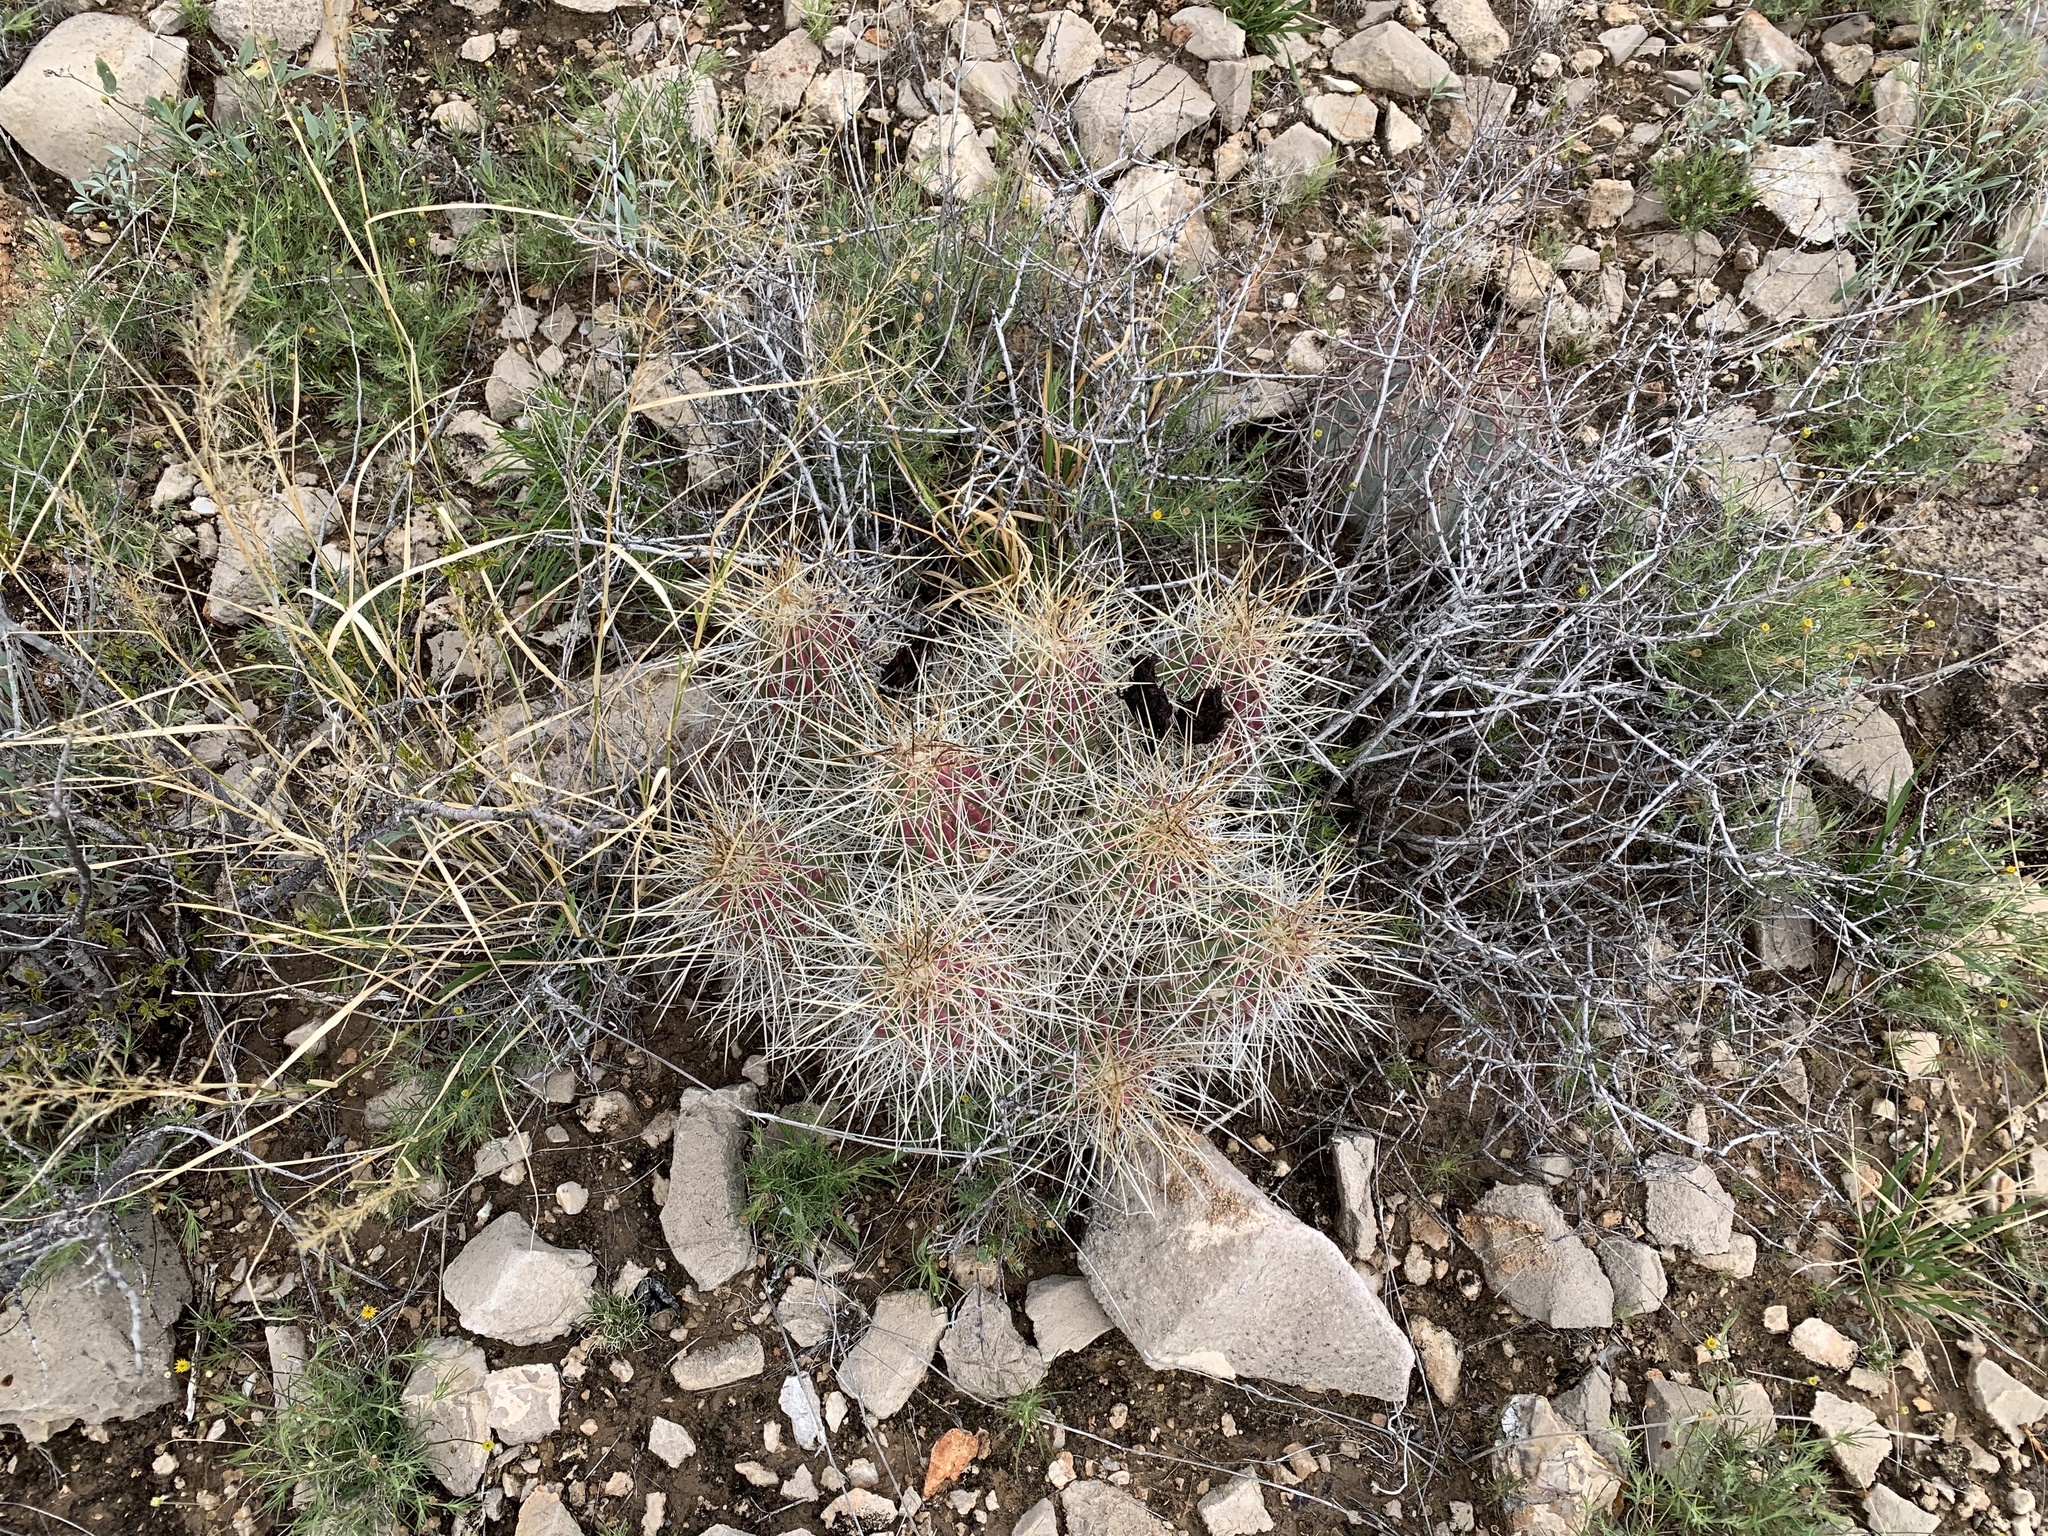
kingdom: Plantae
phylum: Tracheophyta
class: Magnoliopsida
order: Caryophyllales
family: Cactaceae
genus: Echinocereus
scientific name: Echinocereus stramineus
